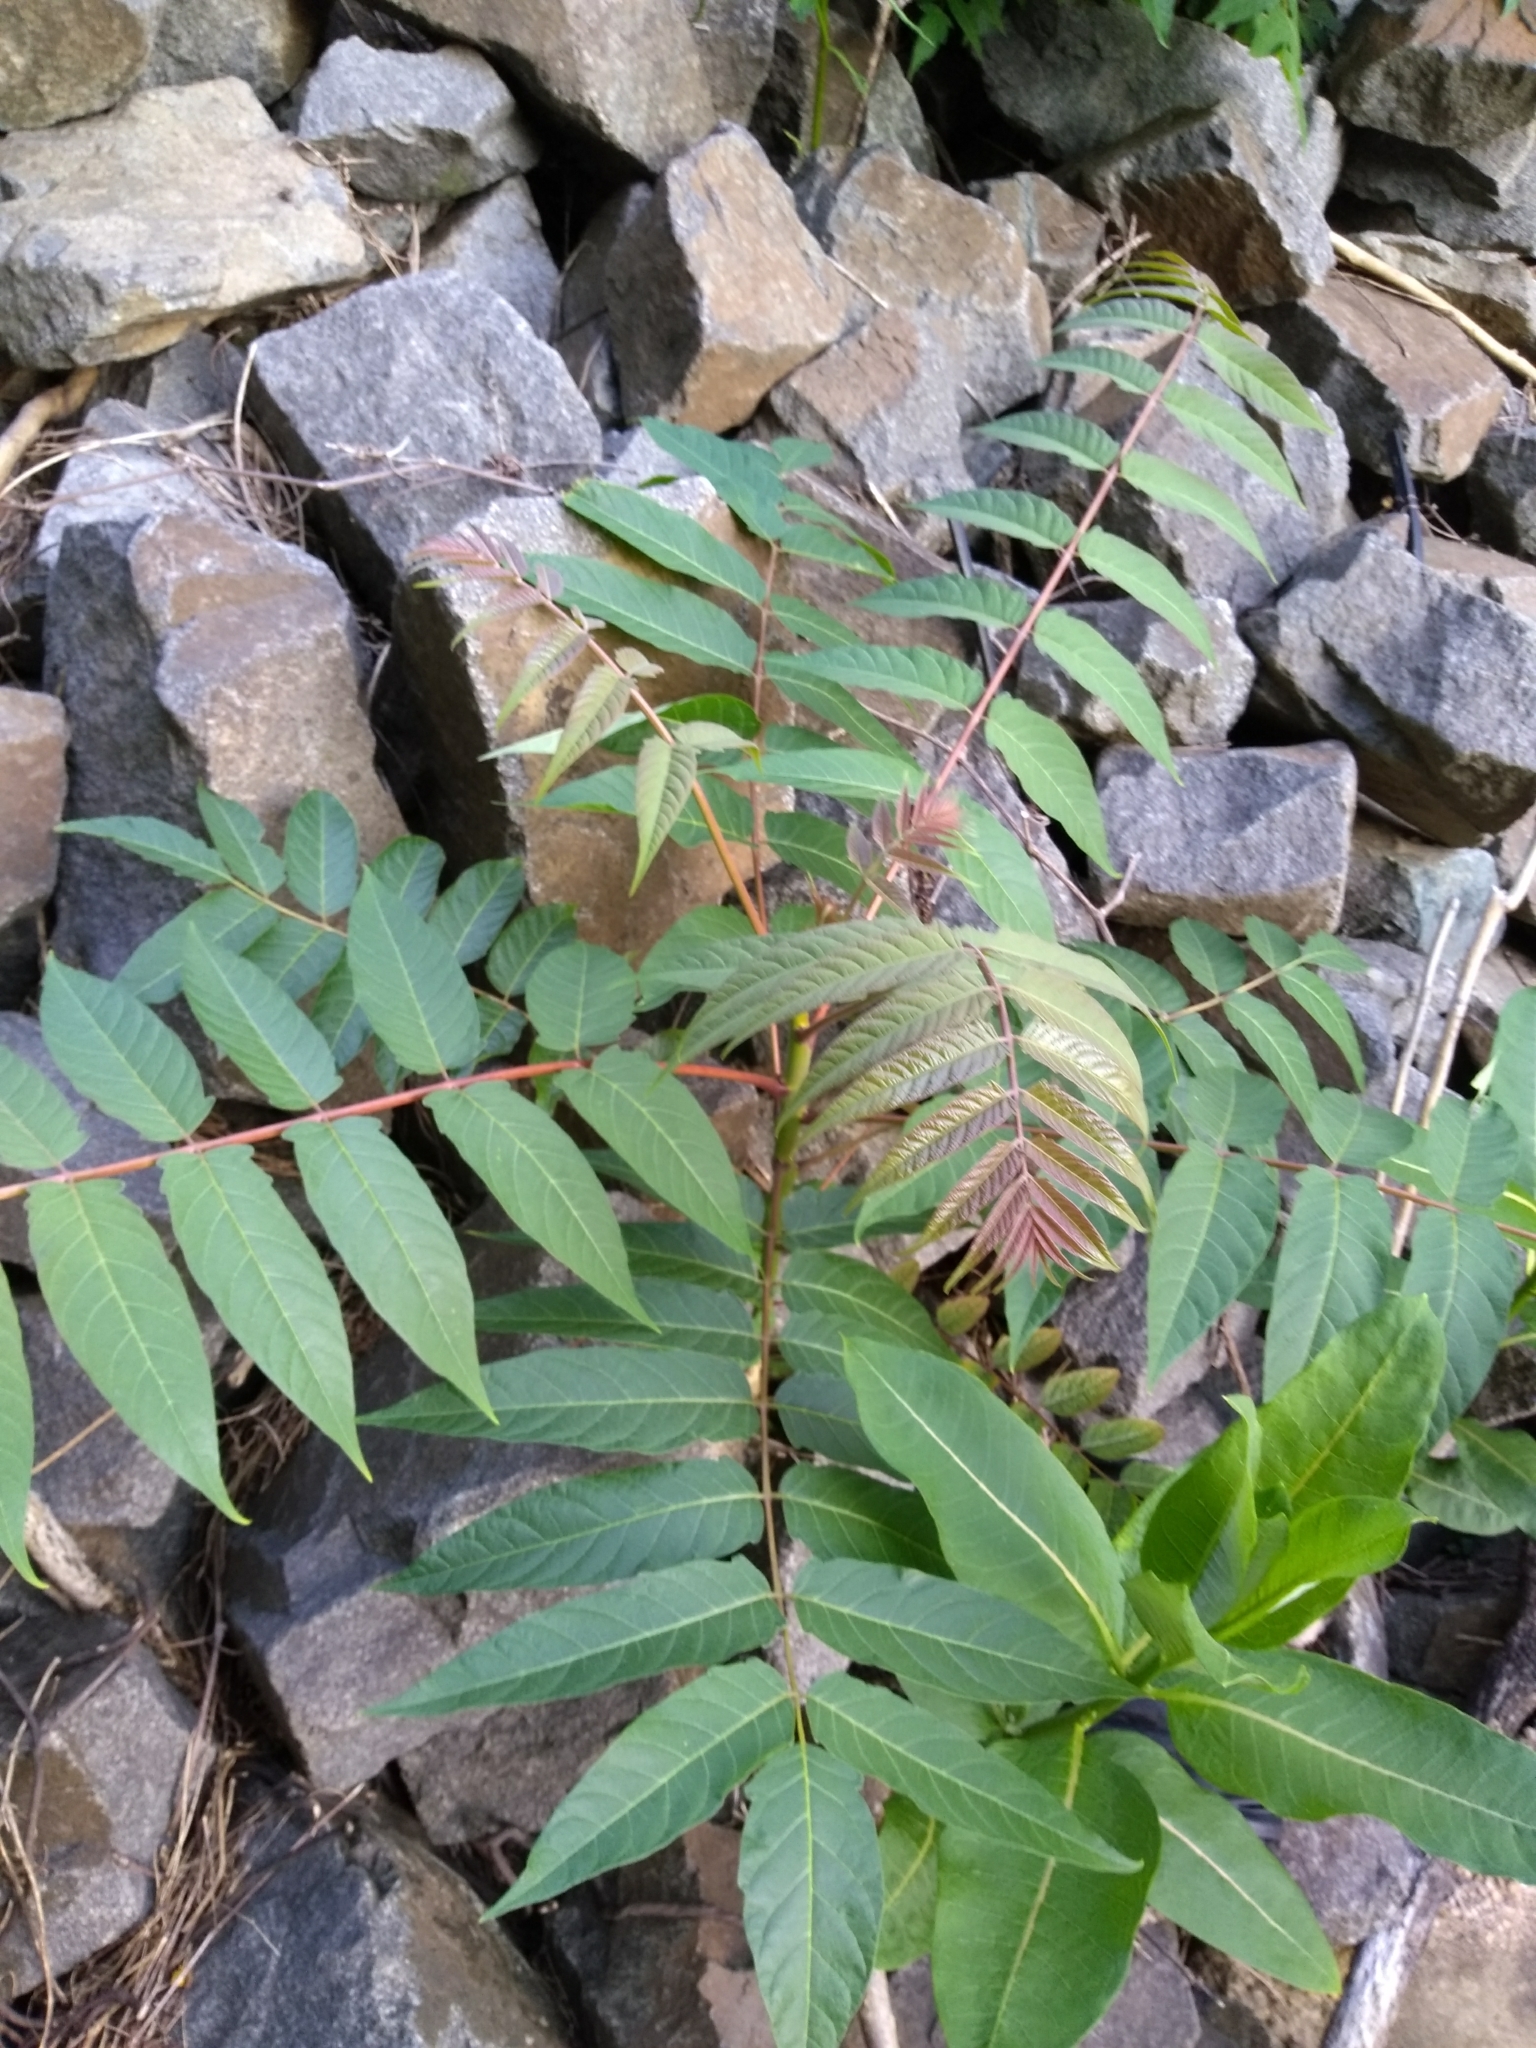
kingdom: Plantae
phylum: Tracheophyta
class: Magnoliopsida
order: Sapindales
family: Simaroubaceae
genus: Ailanthus
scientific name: Ailanthus altissima
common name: Tree-of-heaven
